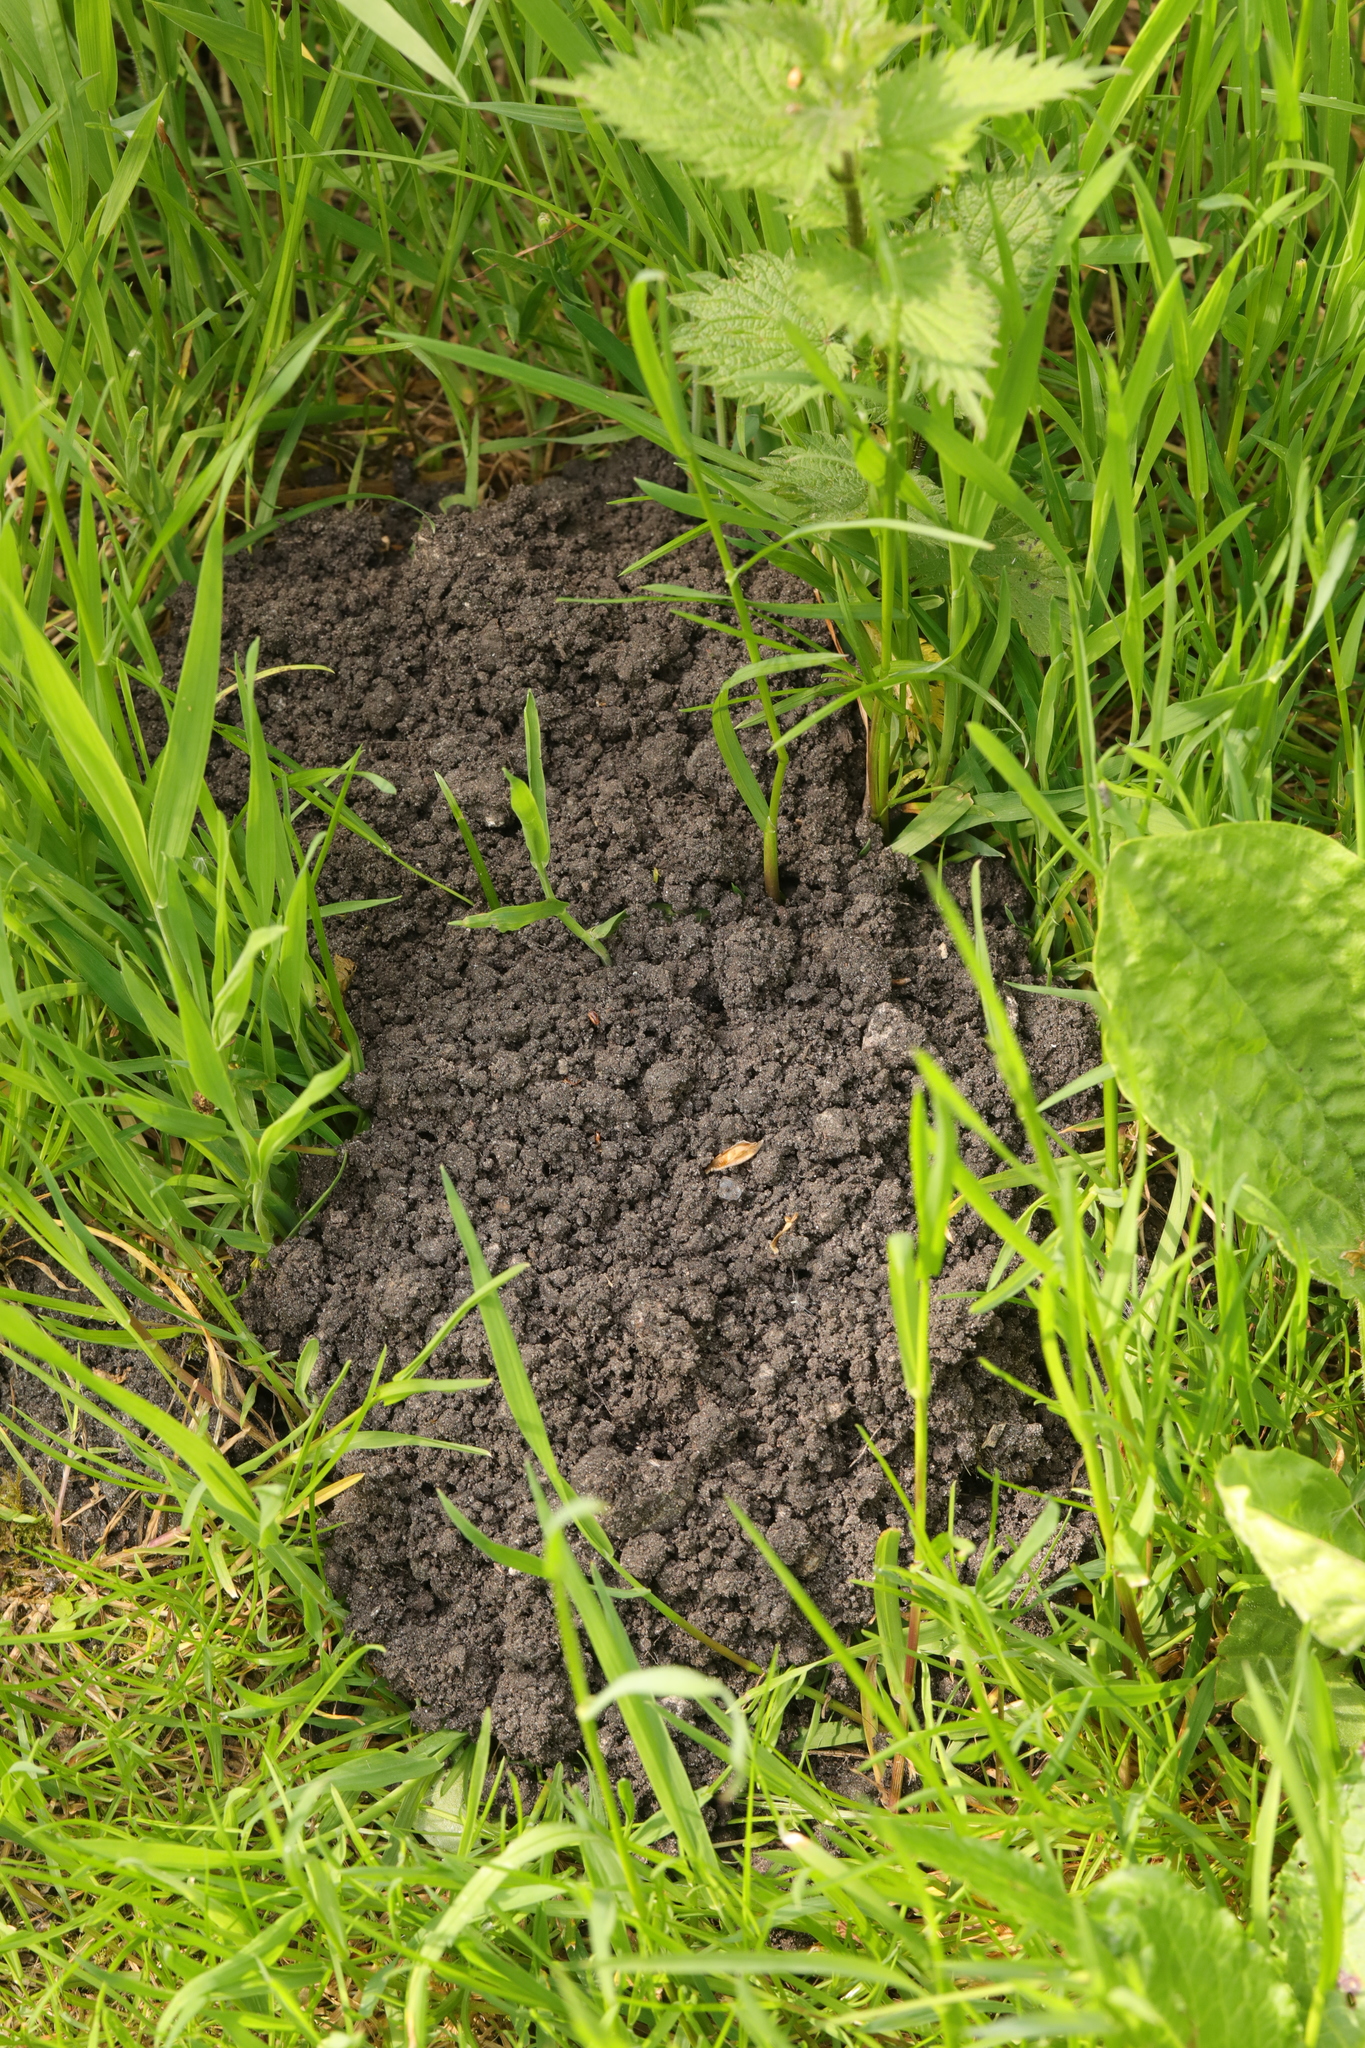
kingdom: Animalia
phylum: Chordata
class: Mammalia
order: Soricomorpha
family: Talpidae
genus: Talpa
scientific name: Talpa europaea
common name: European mole
